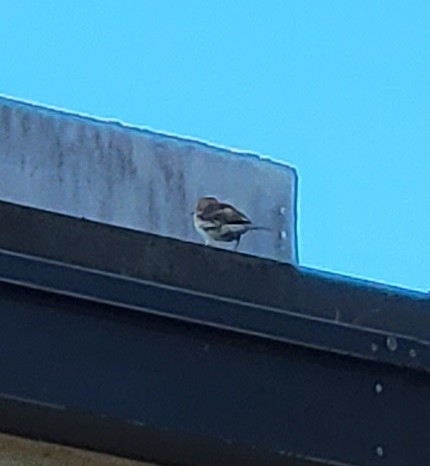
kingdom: Animalia
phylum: Chordata
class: Aves
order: Passeriformes
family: Parulidae
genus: Setophaga
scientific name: Setophaga coronata
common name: Myrtle warbler
